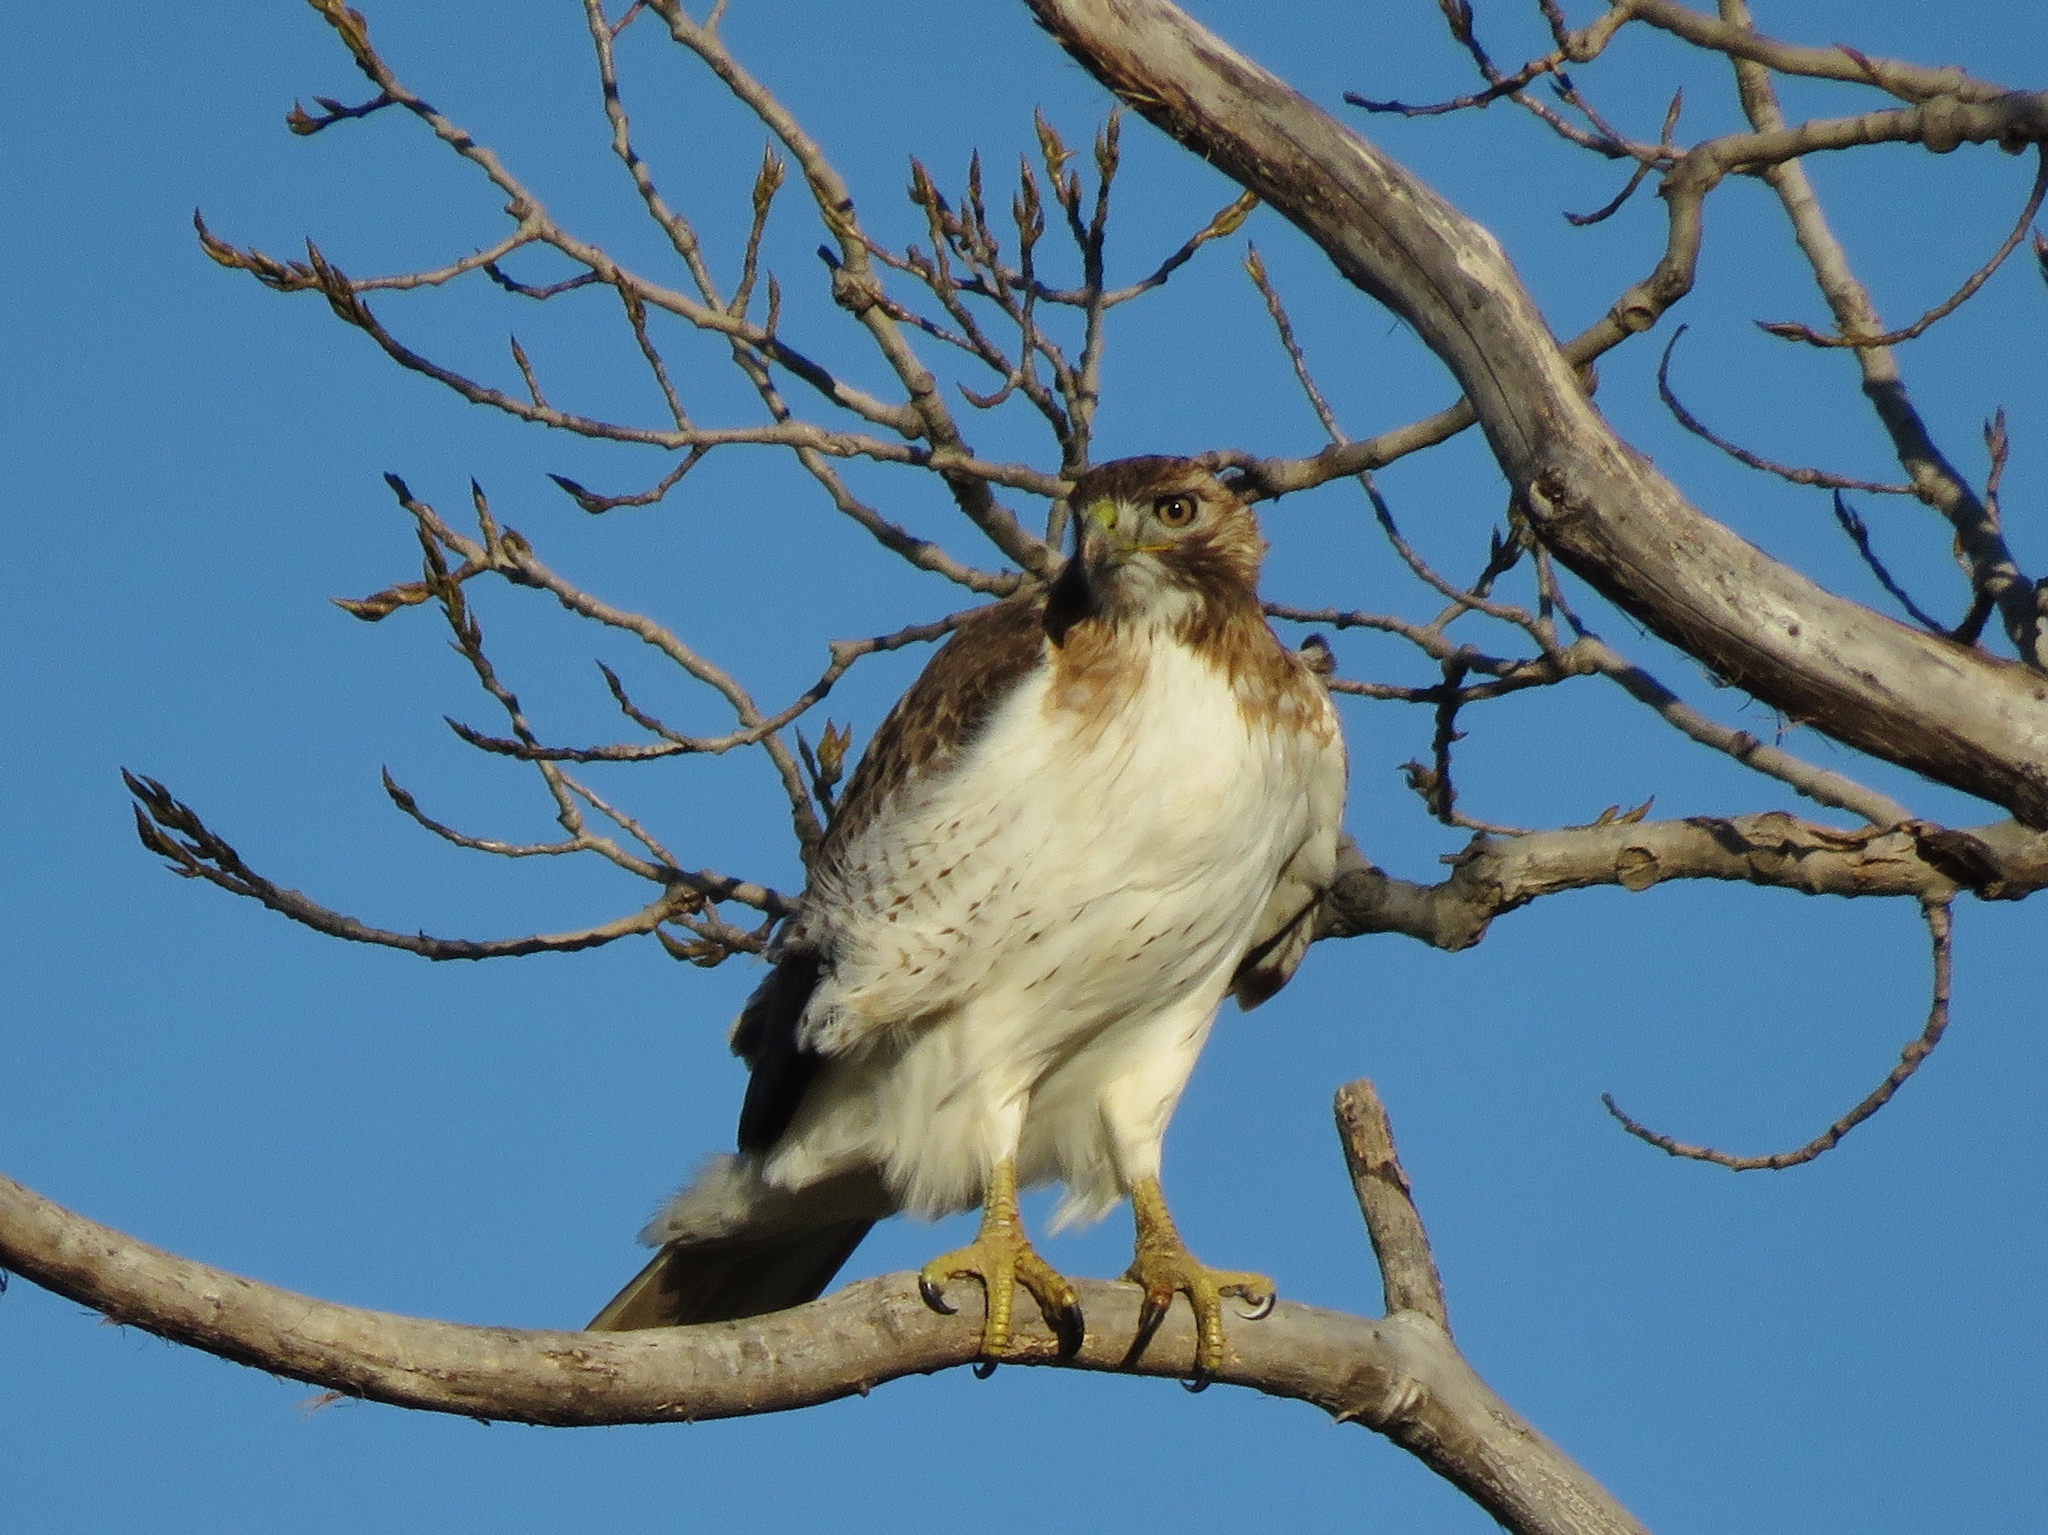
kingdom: Animalia
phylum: Chordata
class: Aves
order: Accipitriformes
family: Accipitridae
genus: Buteo
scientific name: Buteo jamaicensis
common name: Red-tailed hawk
